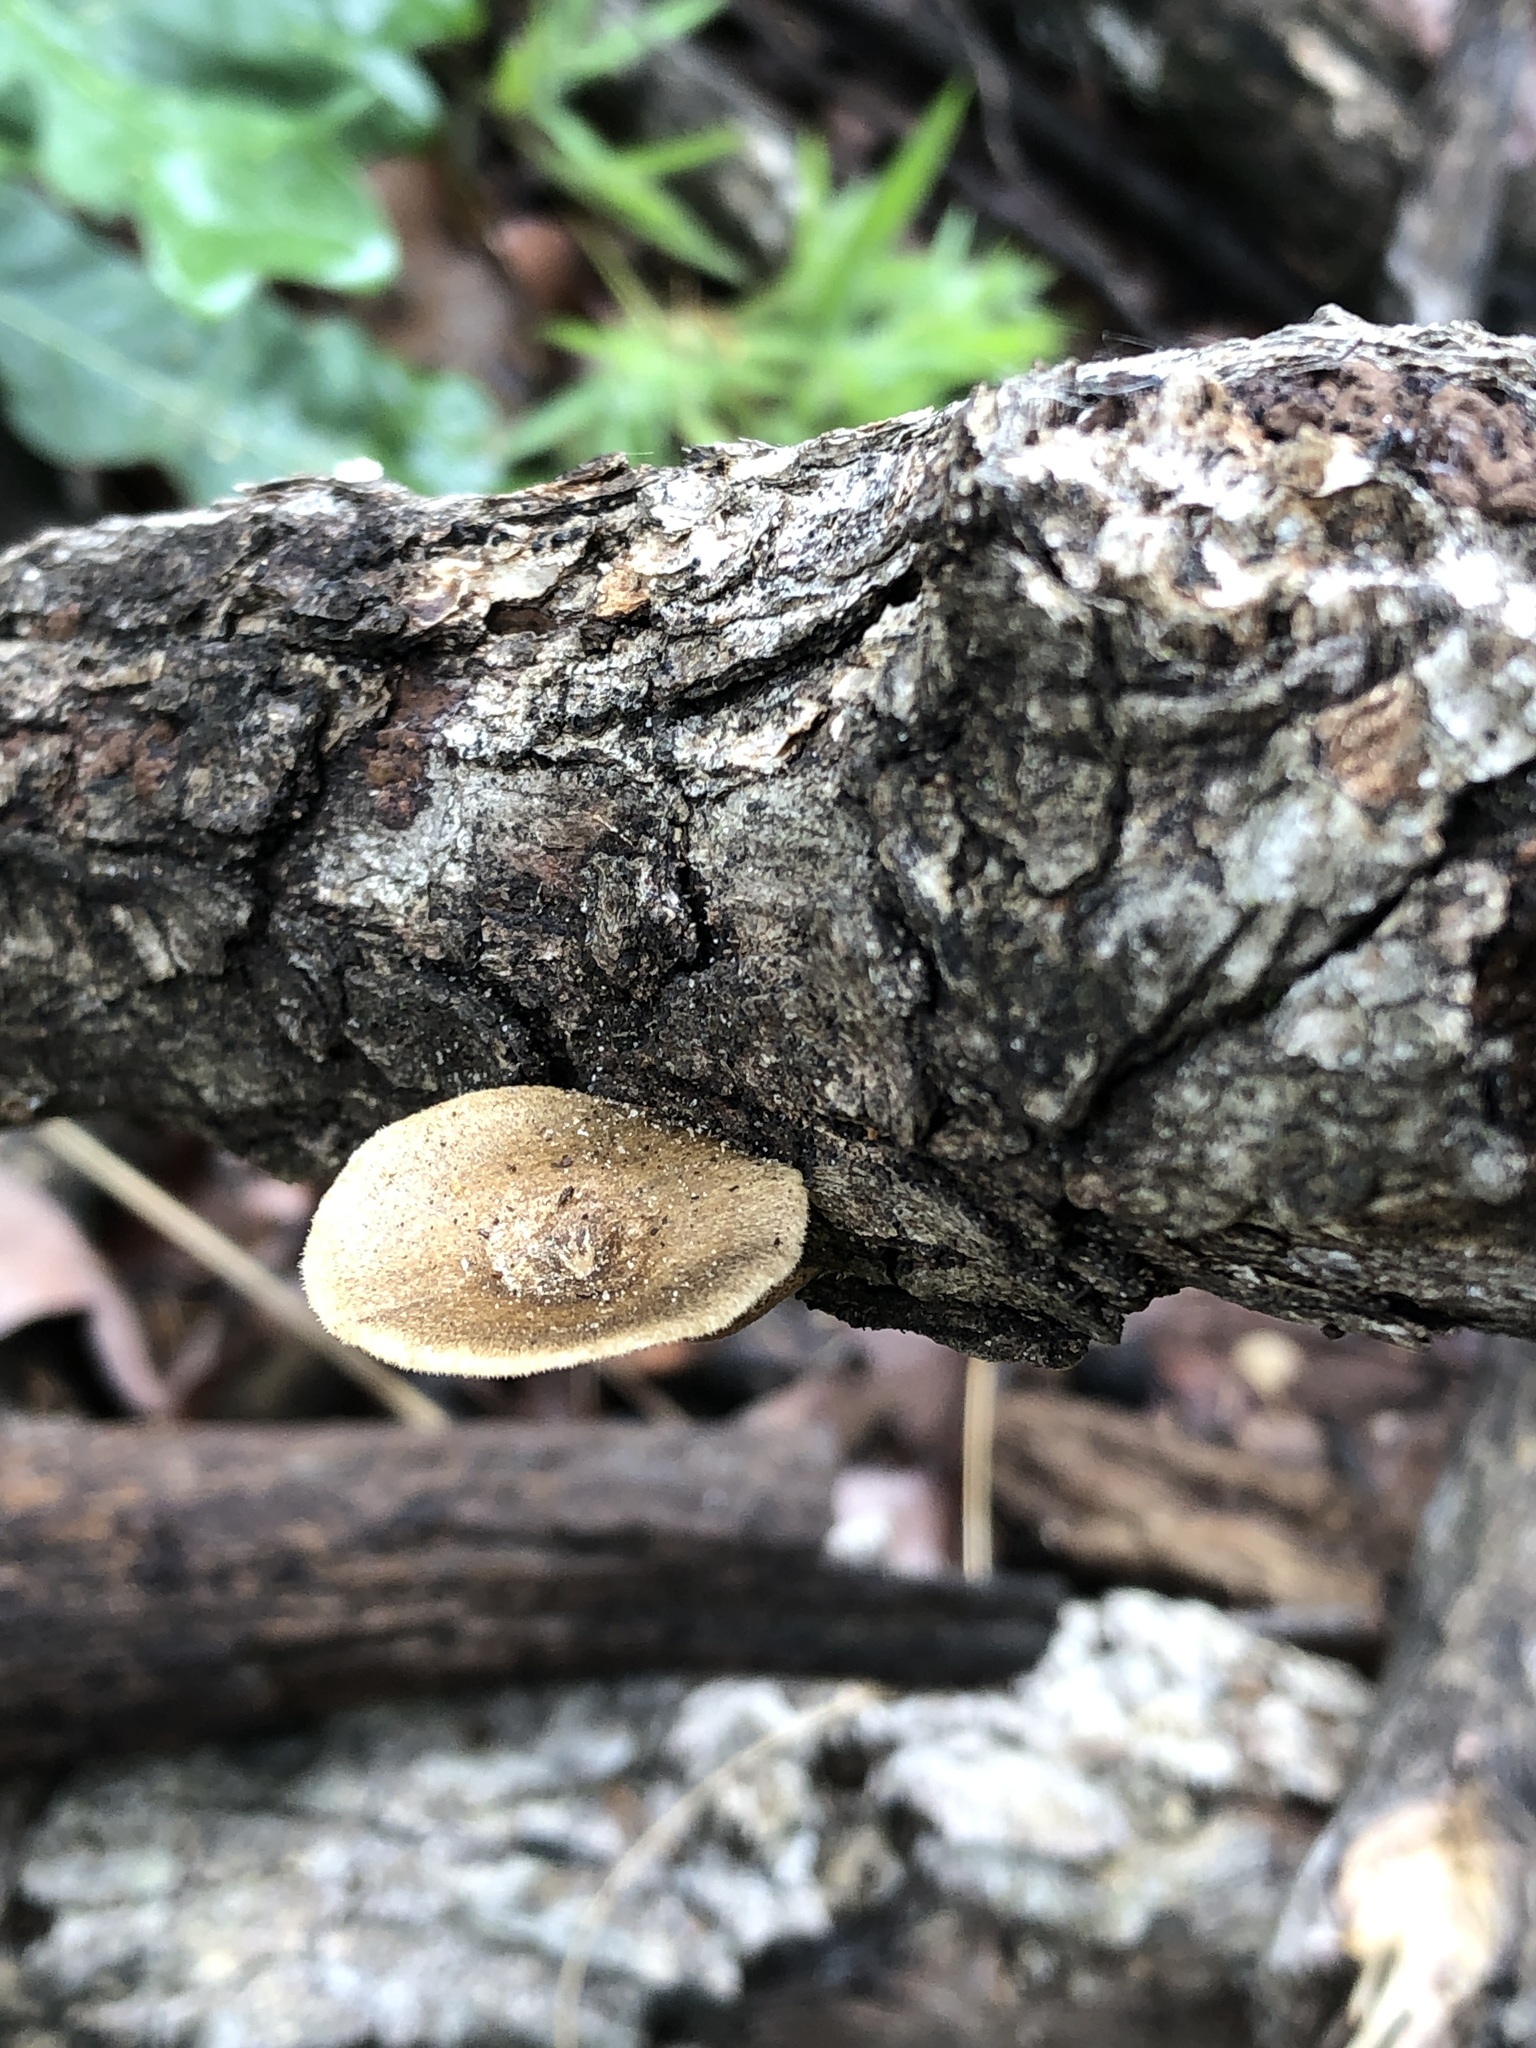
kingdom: Fungi
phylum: Basidiomycota
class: Agaricomycetes
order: Polyporales
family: Polyporaceae
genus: Lentinus
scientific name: Lentinus arcularius
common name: Spring polypore
